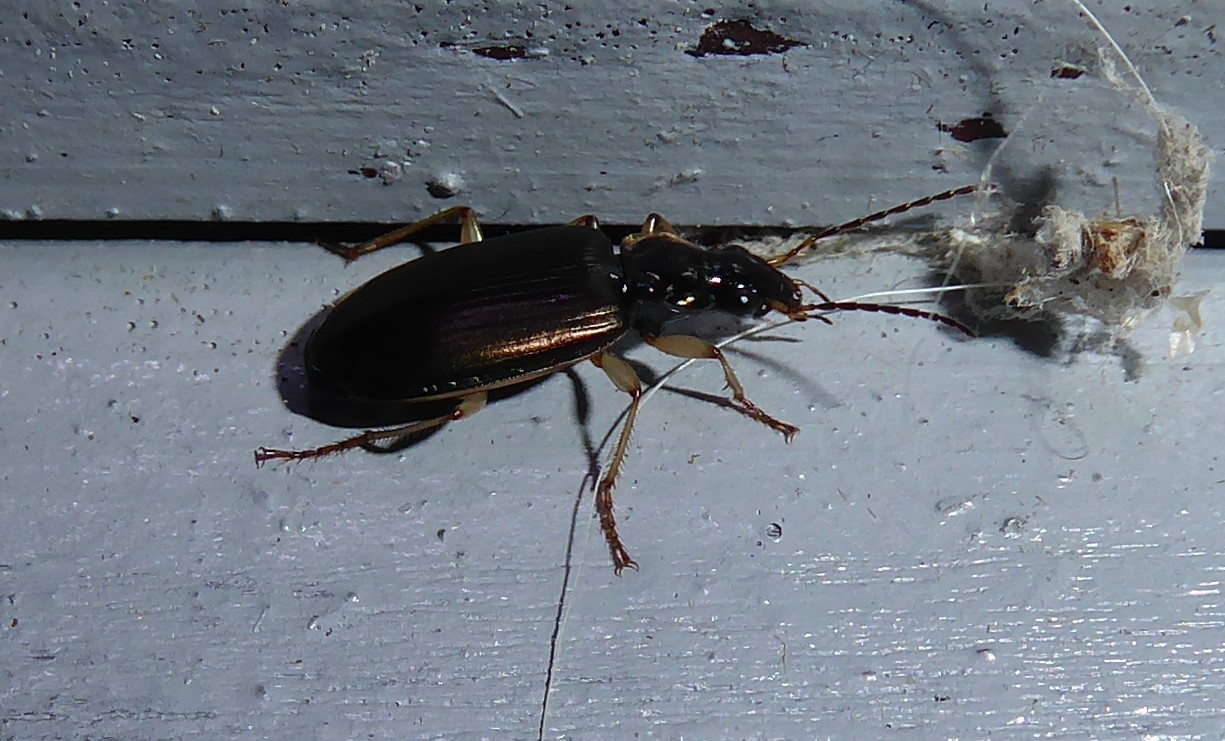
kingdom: Animalia
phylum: Arthropoda
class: Insecta
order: Coleoptera
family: Carabidae
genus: Notagonum
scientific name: Notagonum submetallicum
